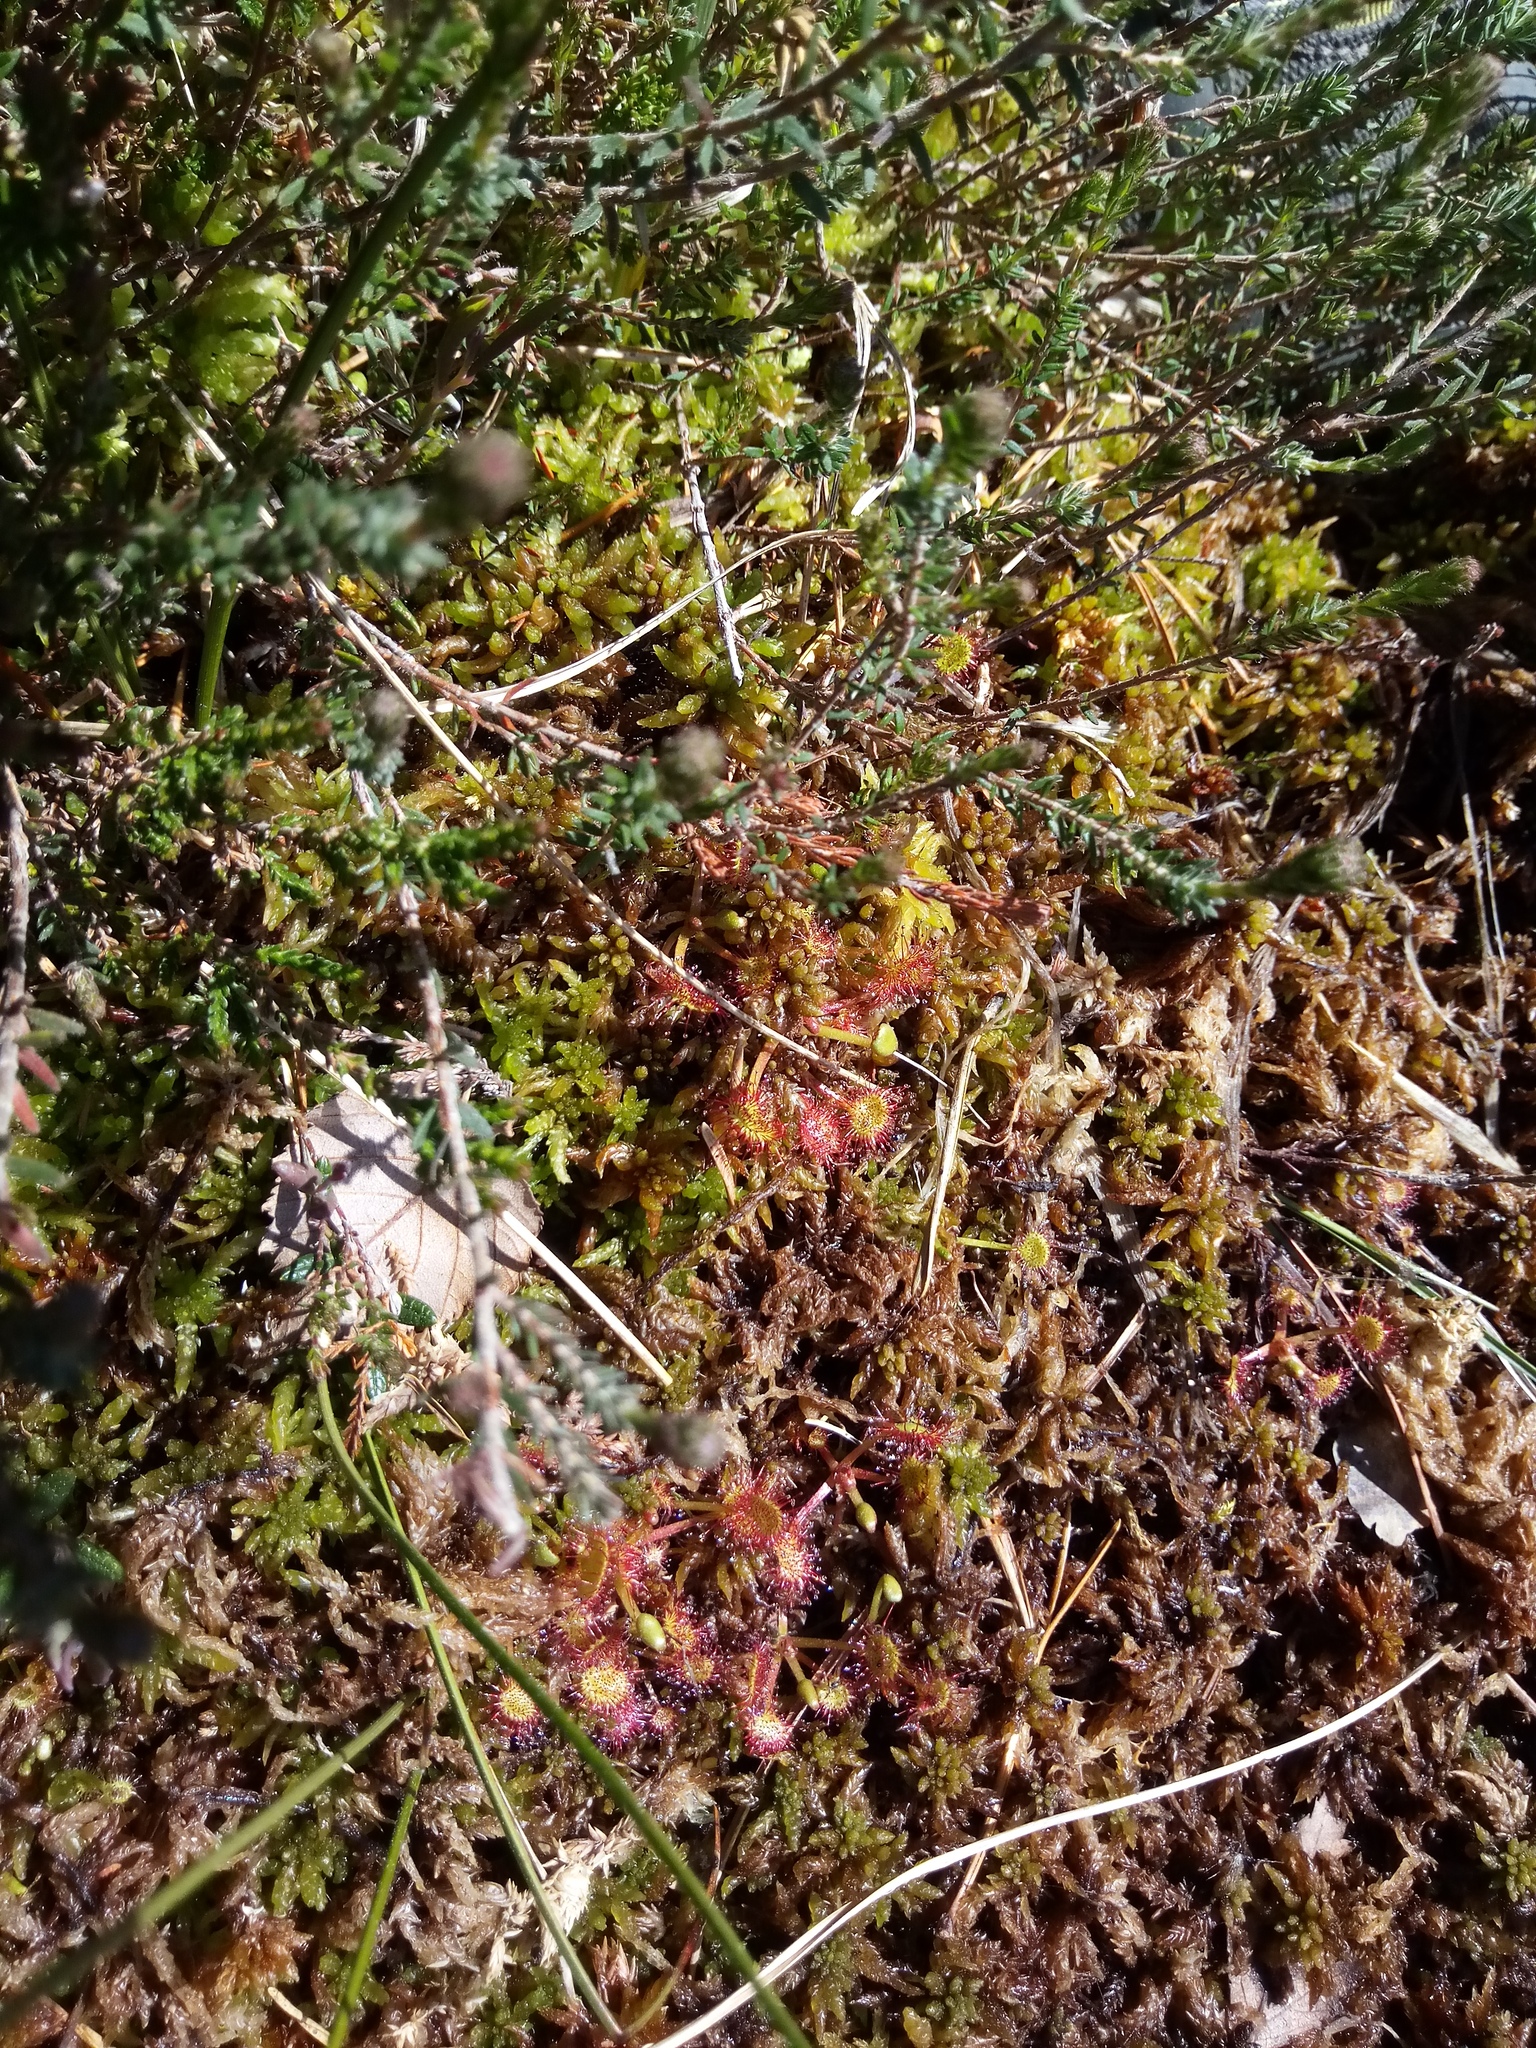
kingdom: Plantae
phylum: Tracheophyta
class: Magnoliopsida
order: Caryophyllales
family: Droseraceae
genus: Drosera
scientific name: Drosera rotundifolia
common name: Round-leaved sundew
